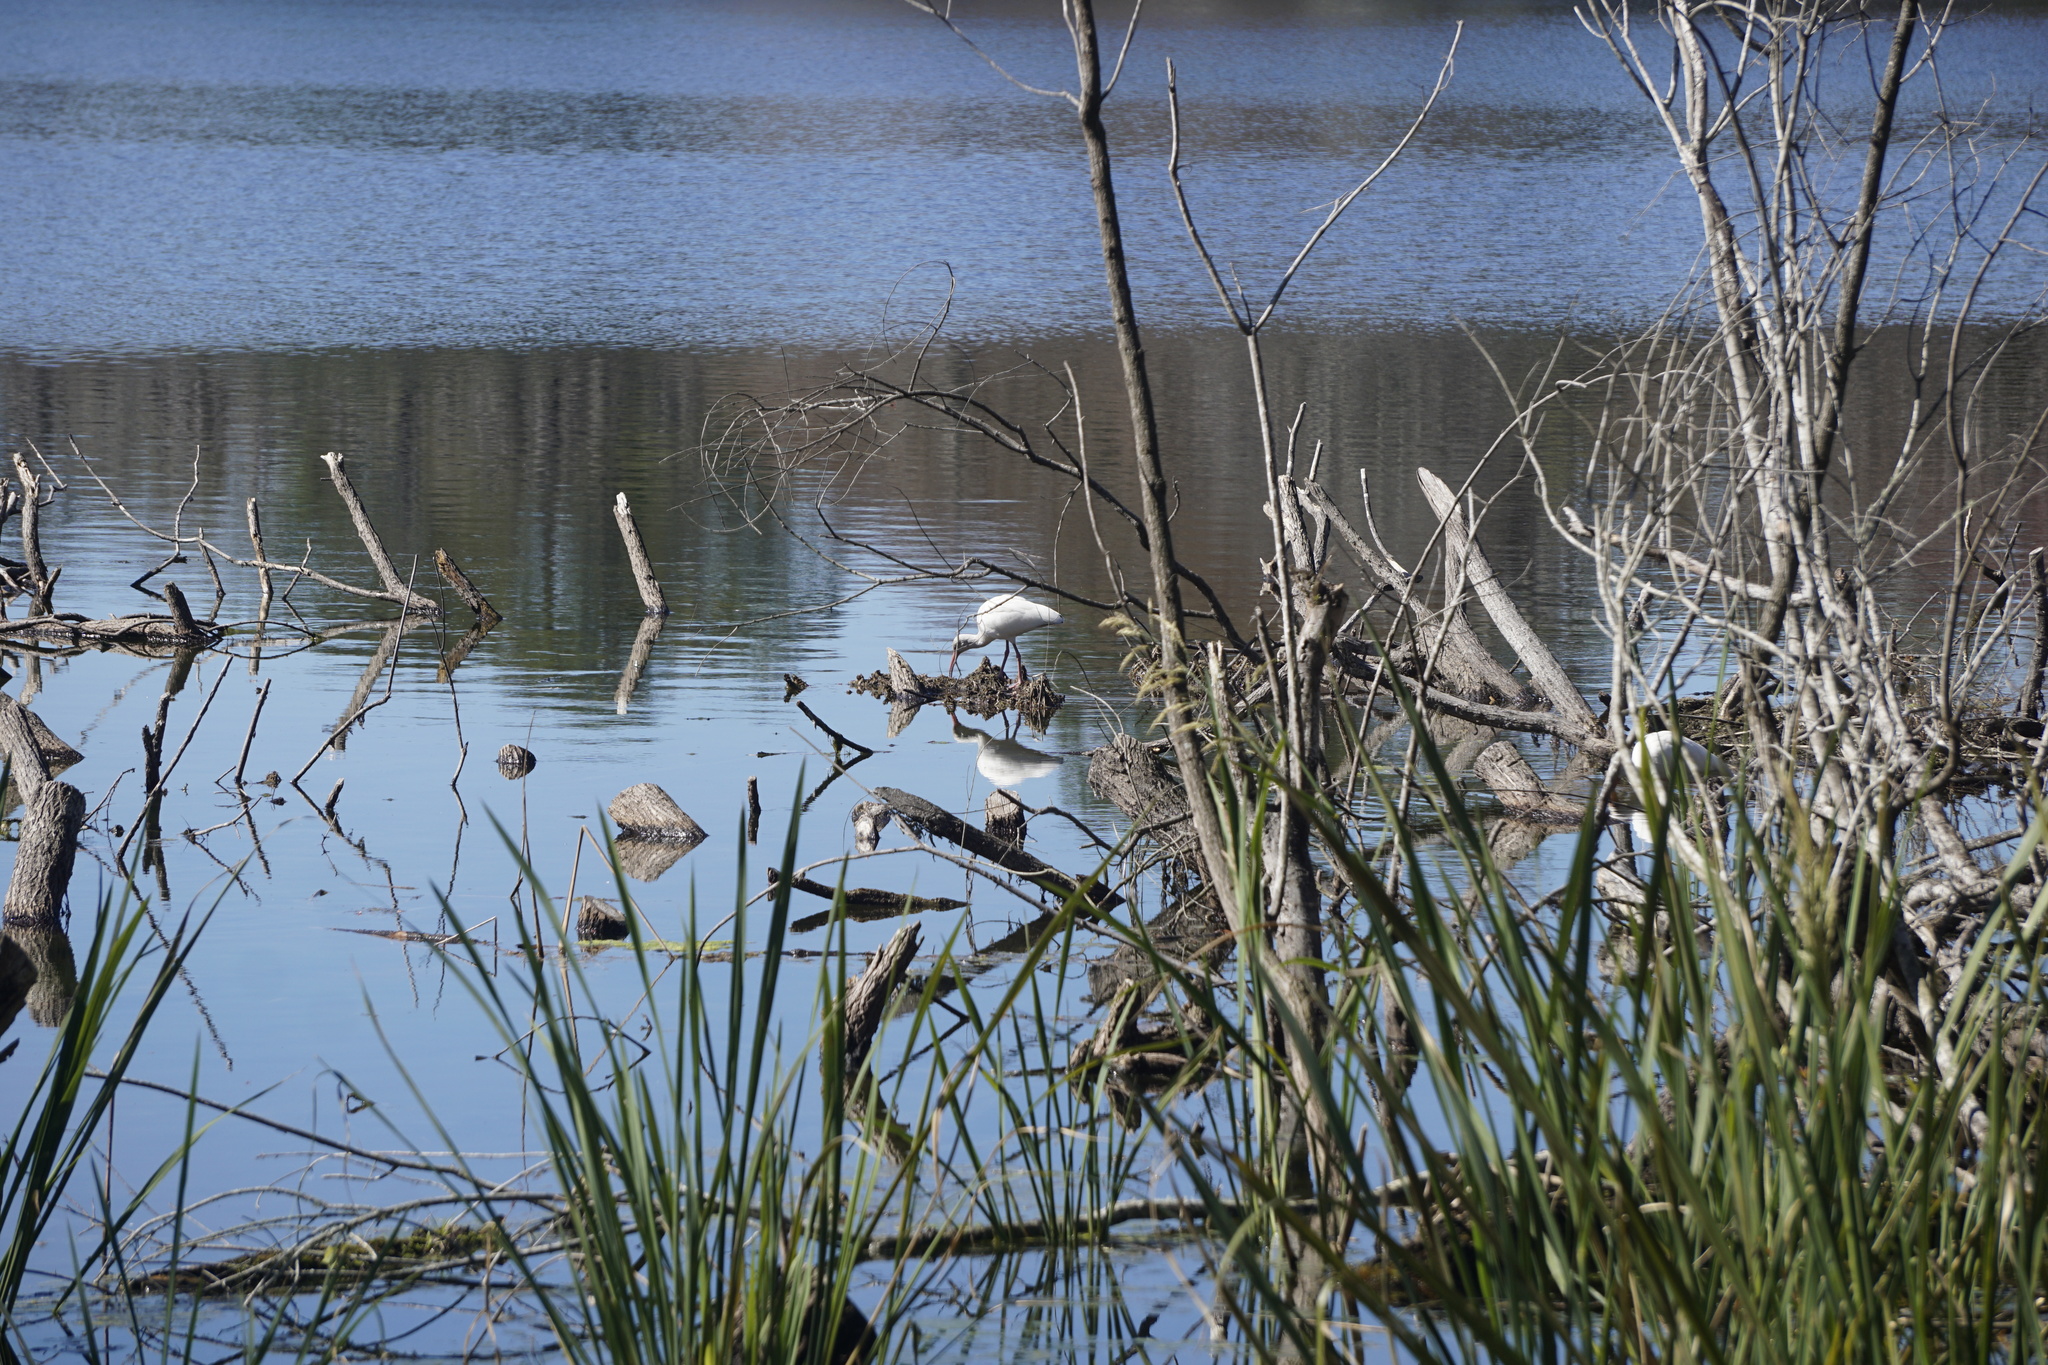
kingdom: Animalia
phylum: Chordata
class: Aves
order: Pelecaniformes
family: Threskiornithidae
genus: Eudocimus
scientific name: Eudocimus albus
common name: White ibis
